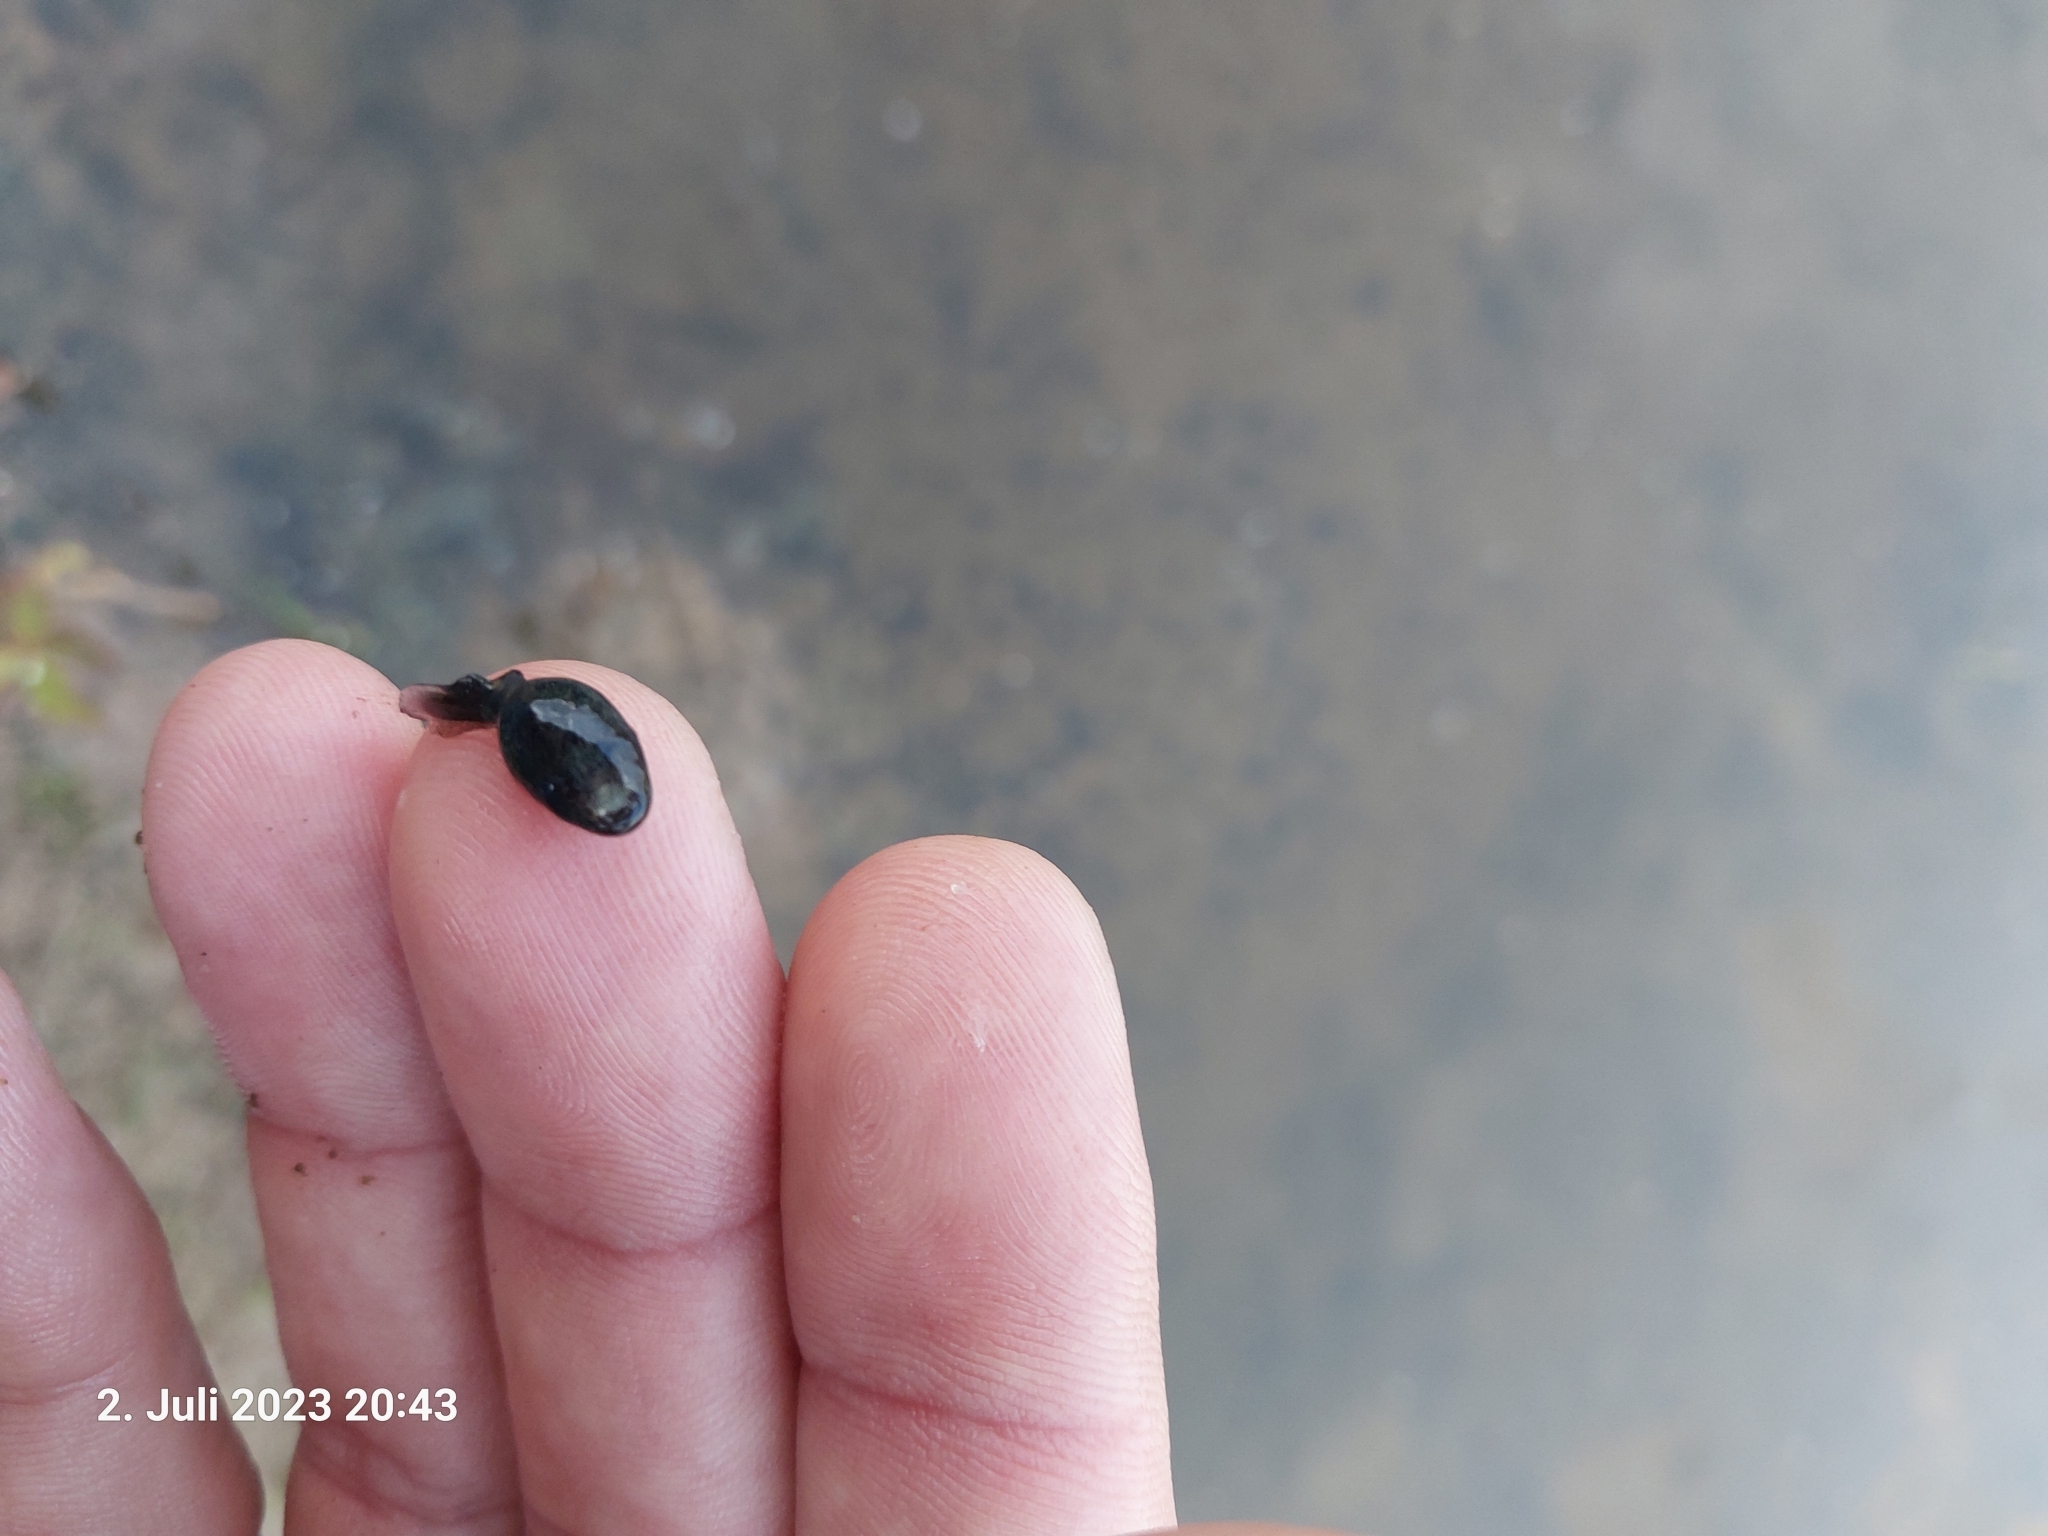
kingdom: Animalia
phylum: Chordata
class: Amphibia
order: Anura
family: Bufonidae
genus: Epidalea
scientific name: Epidalea calamita
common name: Natterjack toad
